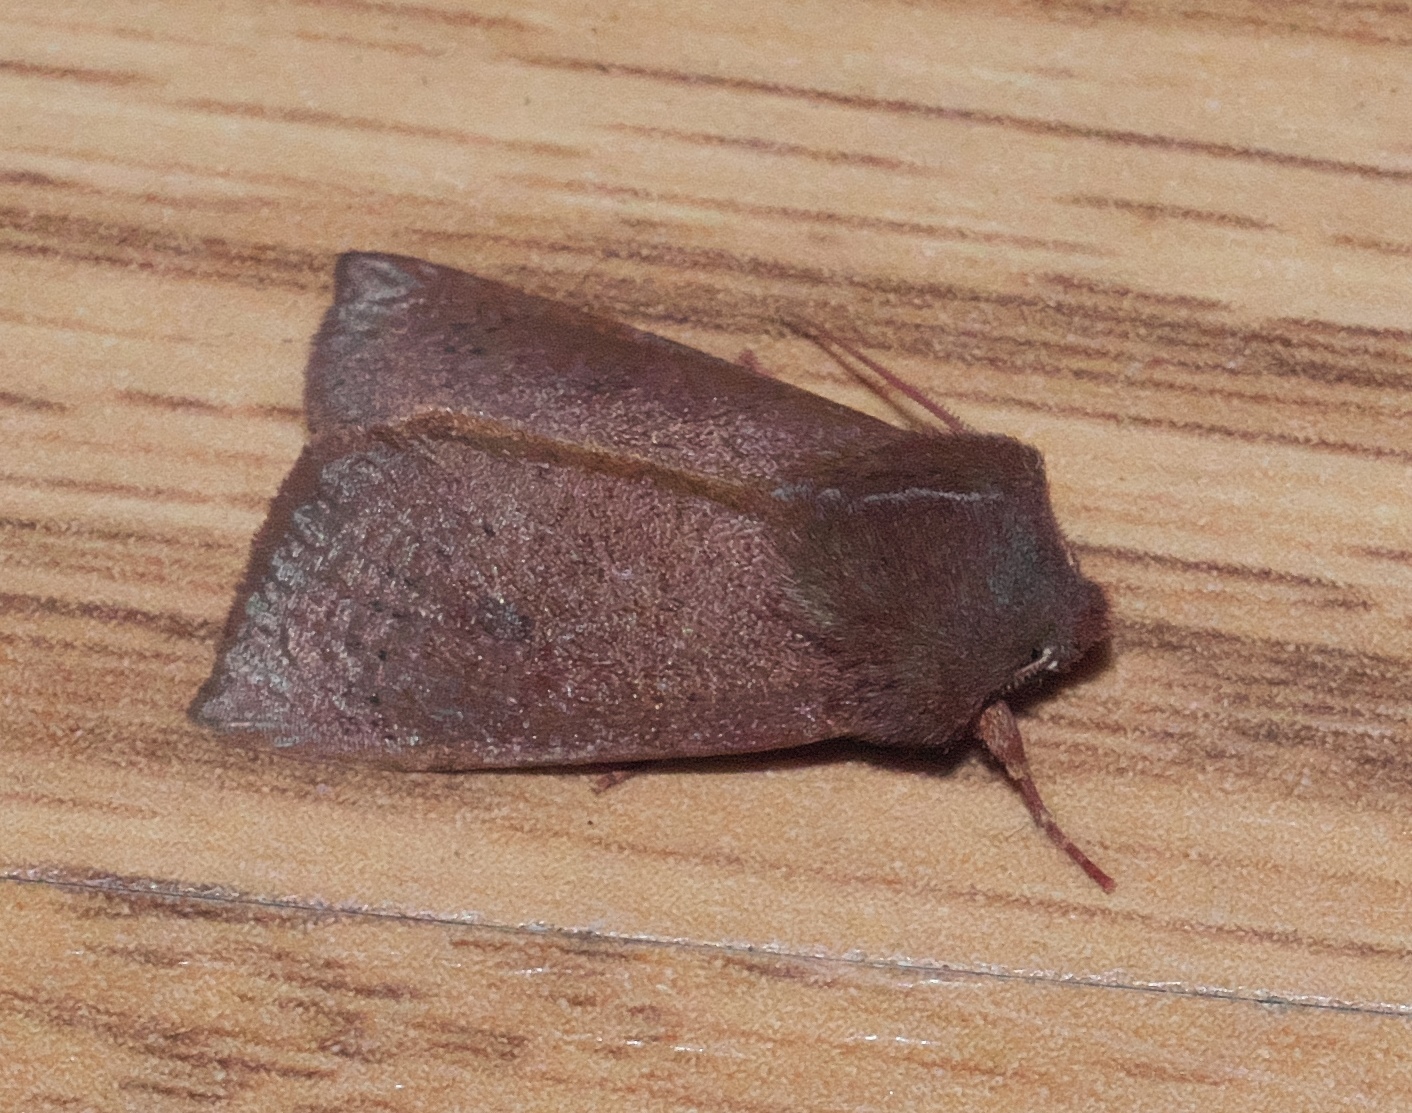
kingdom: Animalia
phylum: Arthropoda
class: Insecta
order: Lepidoptera
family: Noctuidae
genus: Orthosia
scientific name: Orthosia transparens
